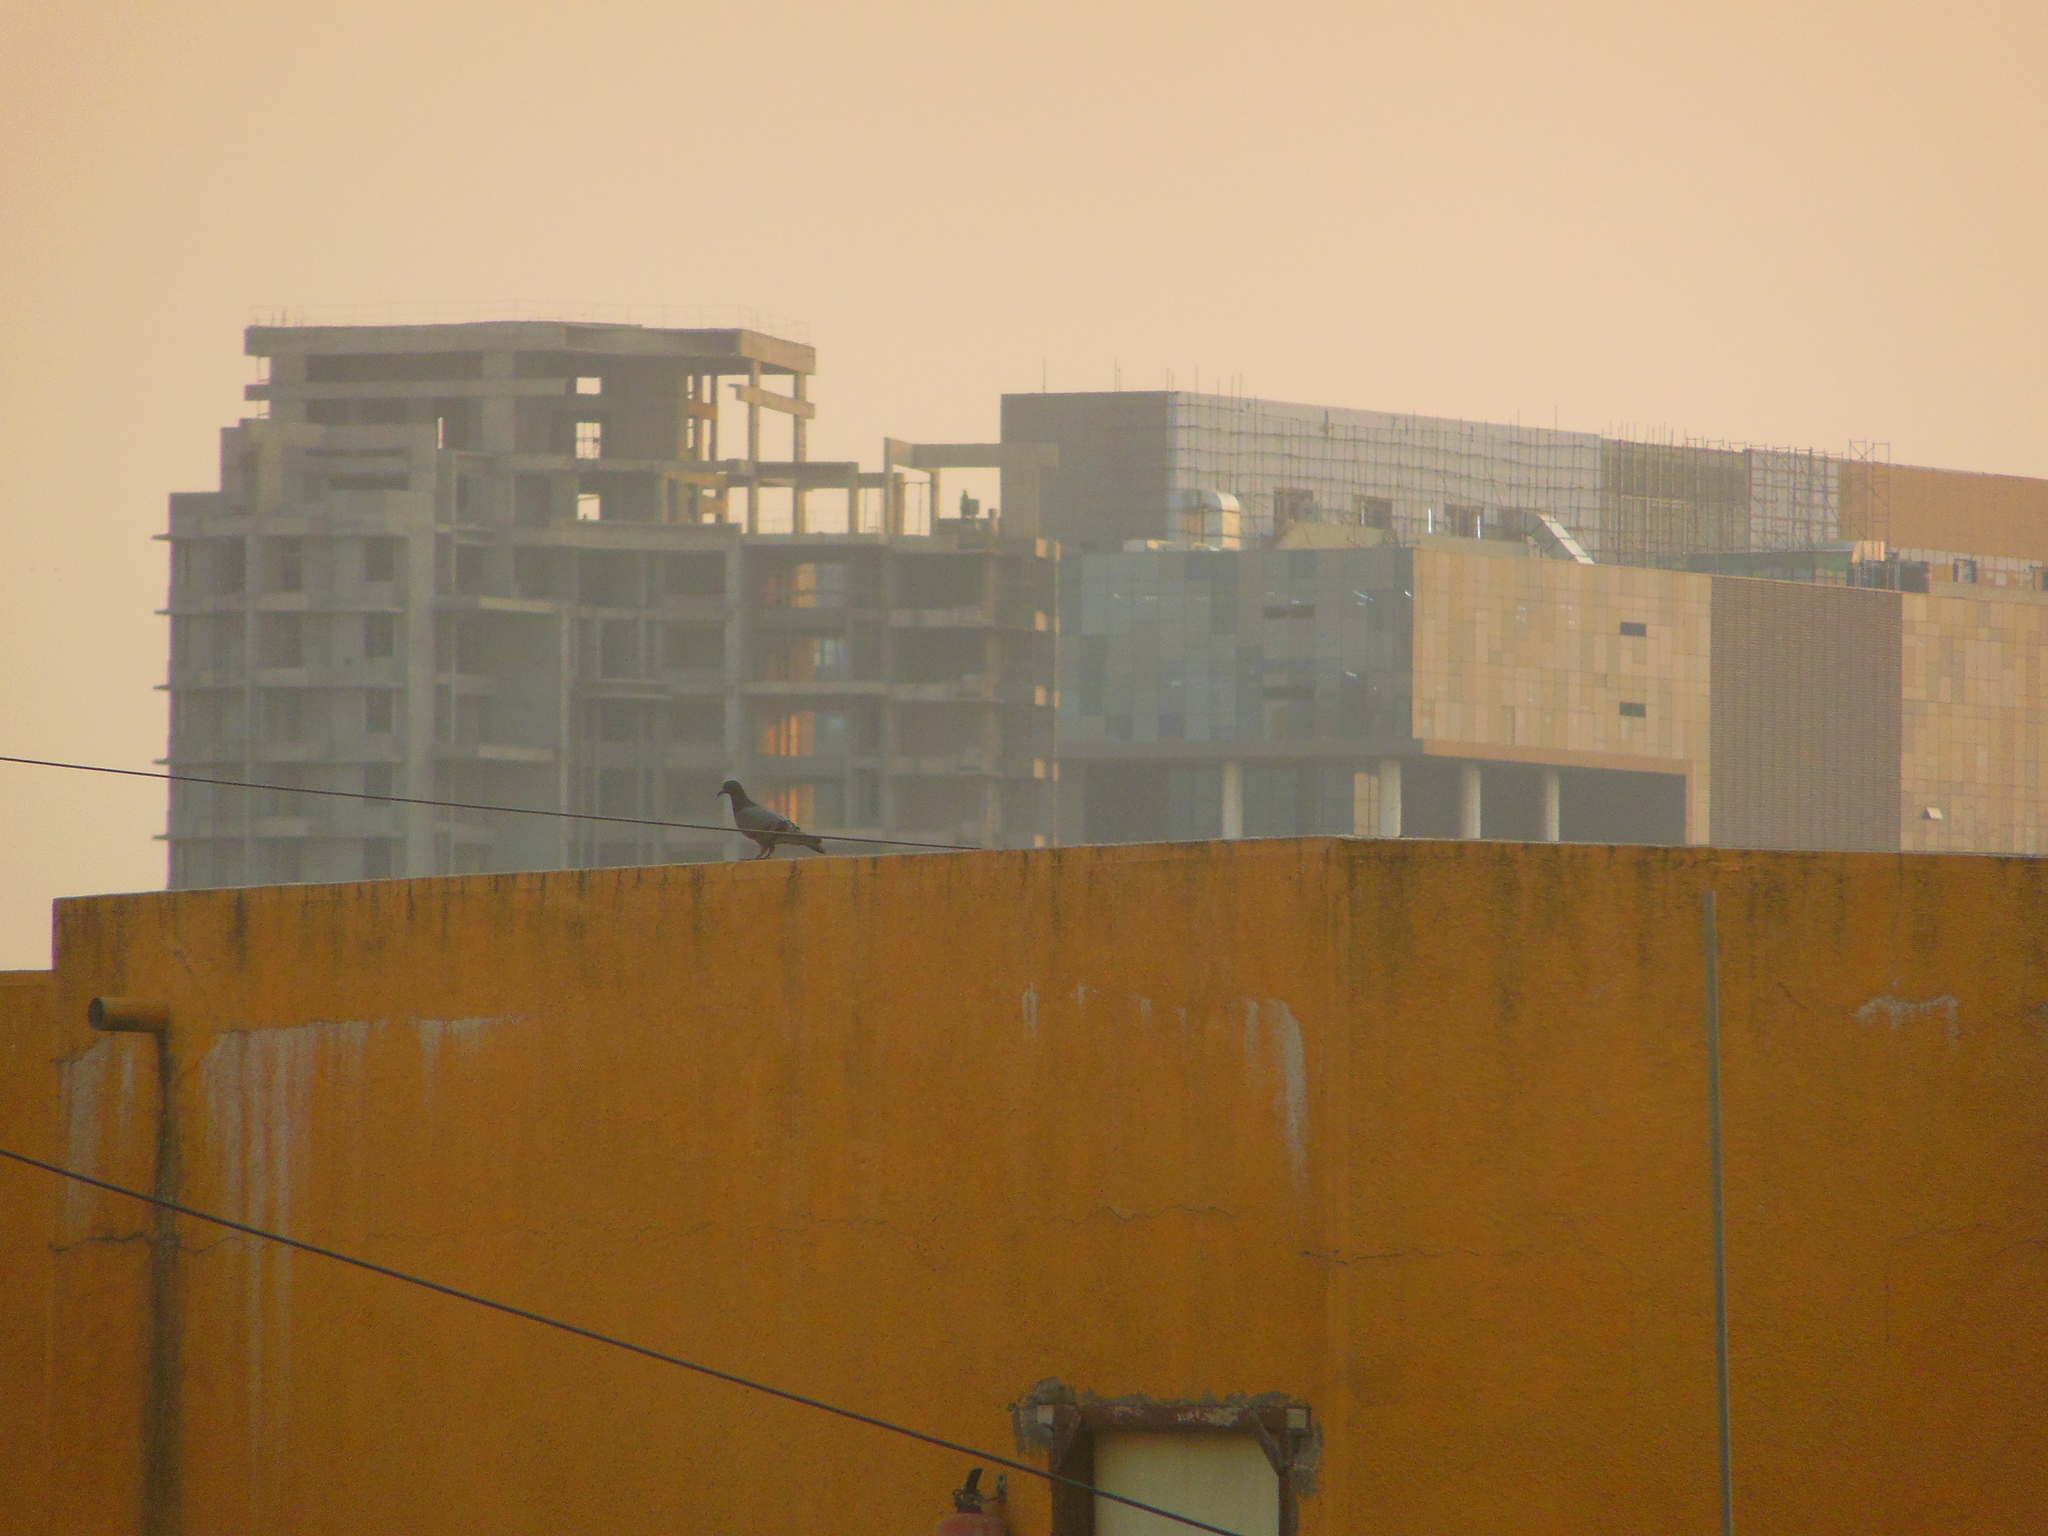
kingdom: Animalia
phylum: Chordata
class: Aves
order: Columbiformes
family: Columbidae
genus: Columba
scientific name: Columba livia
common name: Rock pigeon
